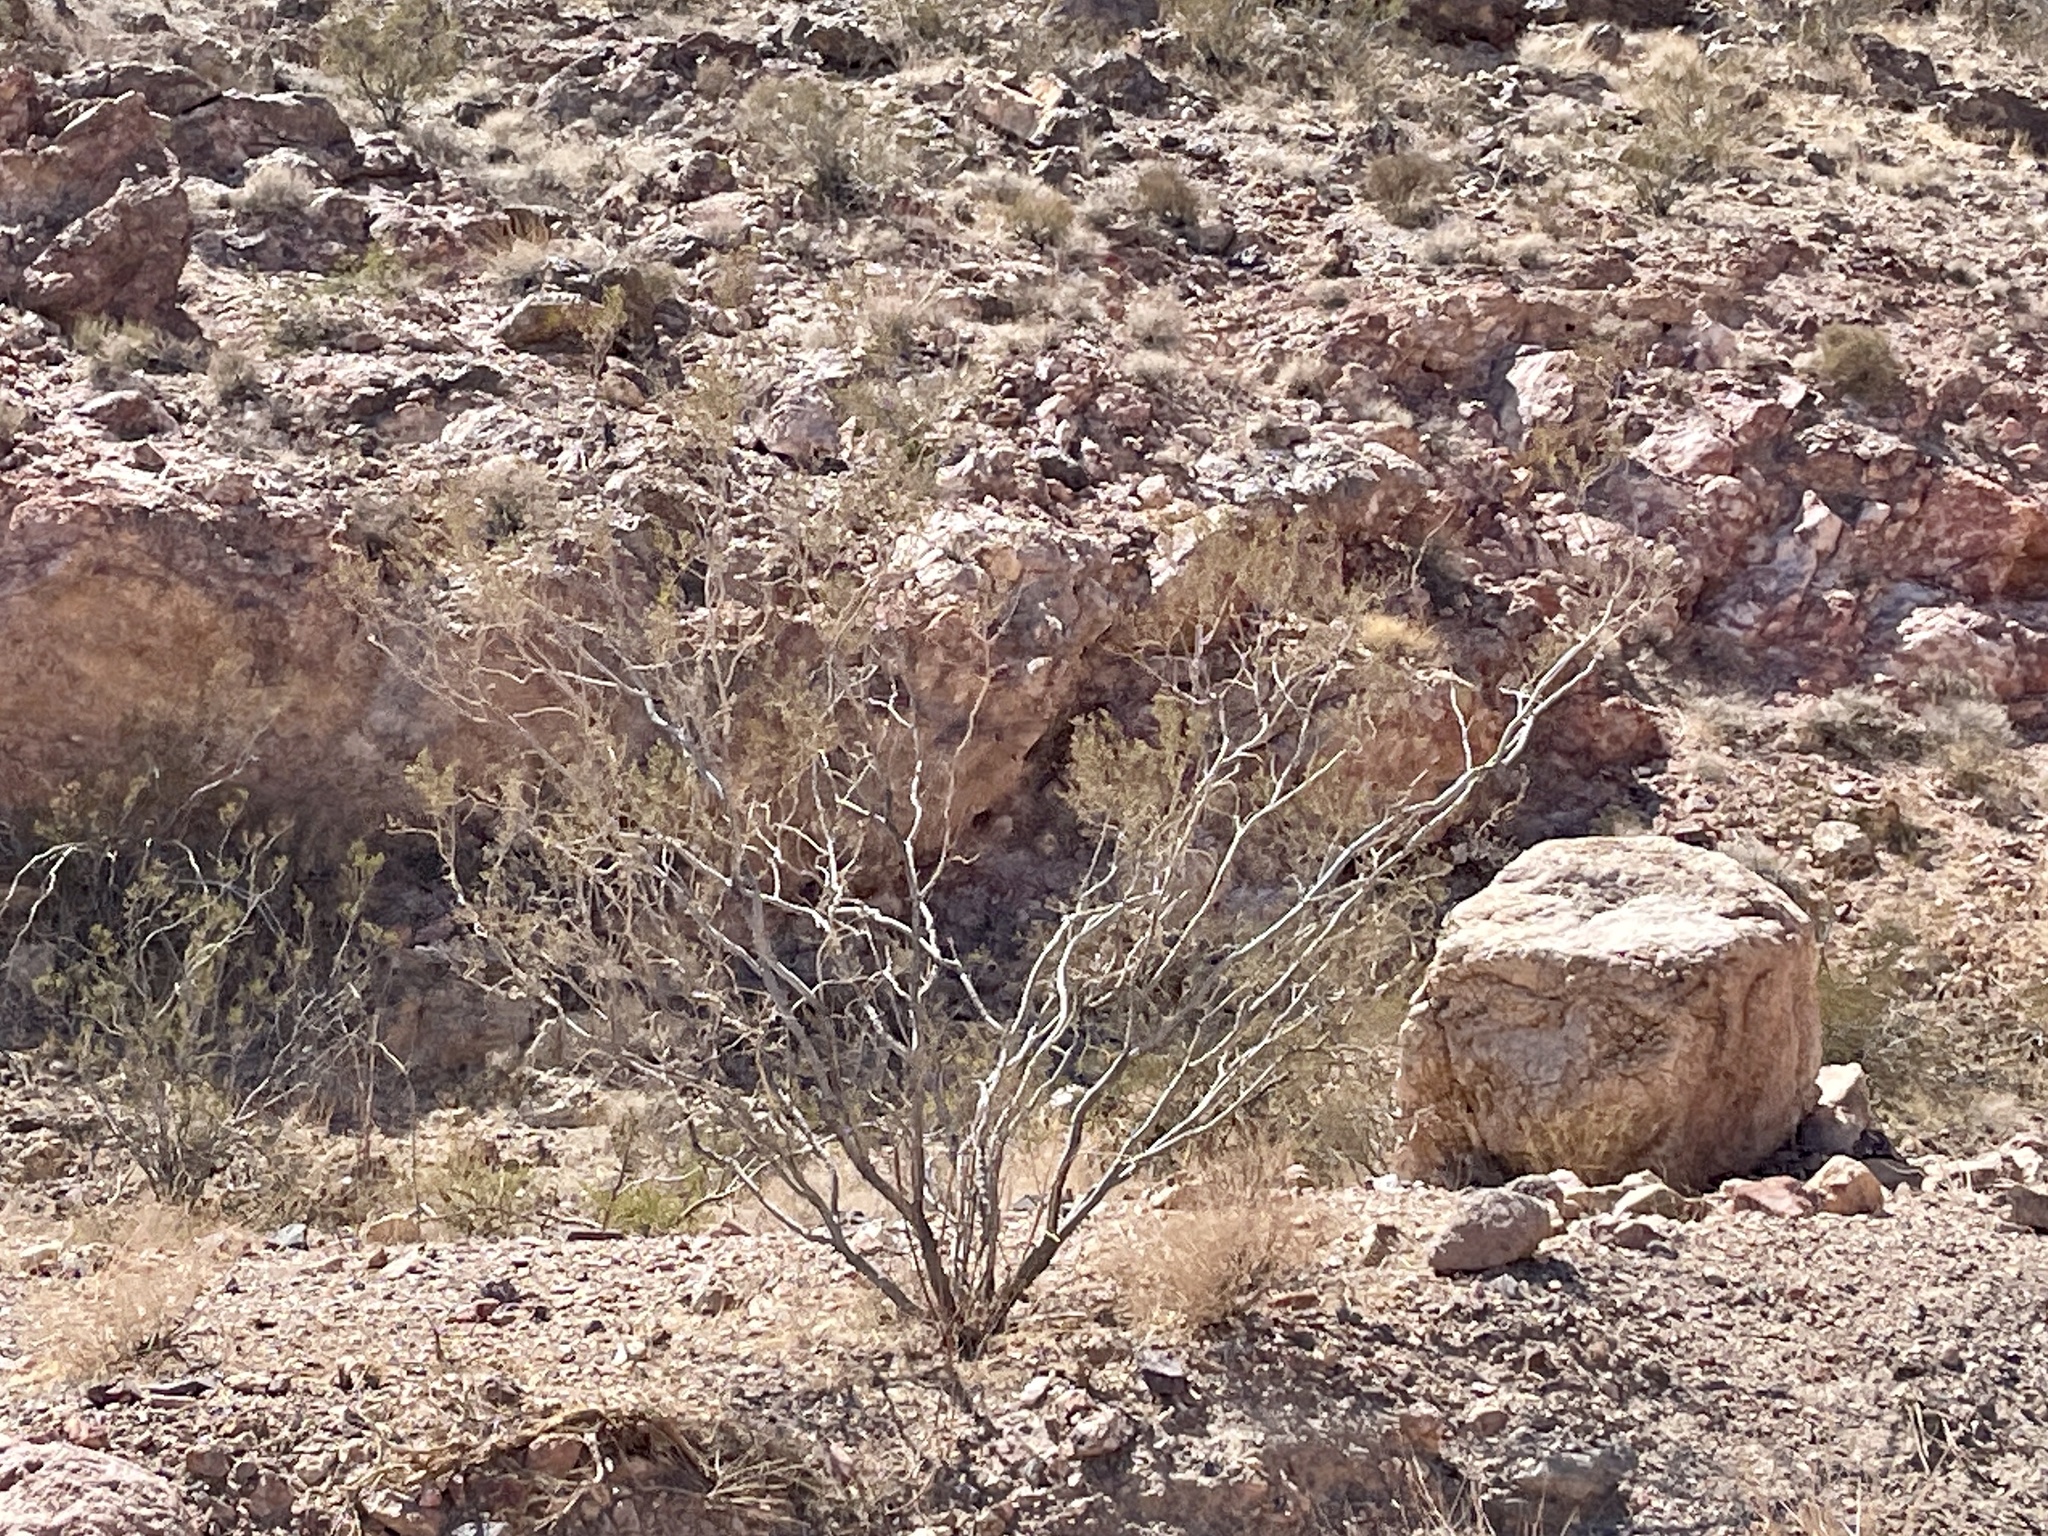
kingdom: Plantae
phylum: Tracheophyta
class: Magnoliopsida
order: Zygophyllales
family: Zygophyllaceae
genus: Larrea
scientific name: Larrea tridentata
